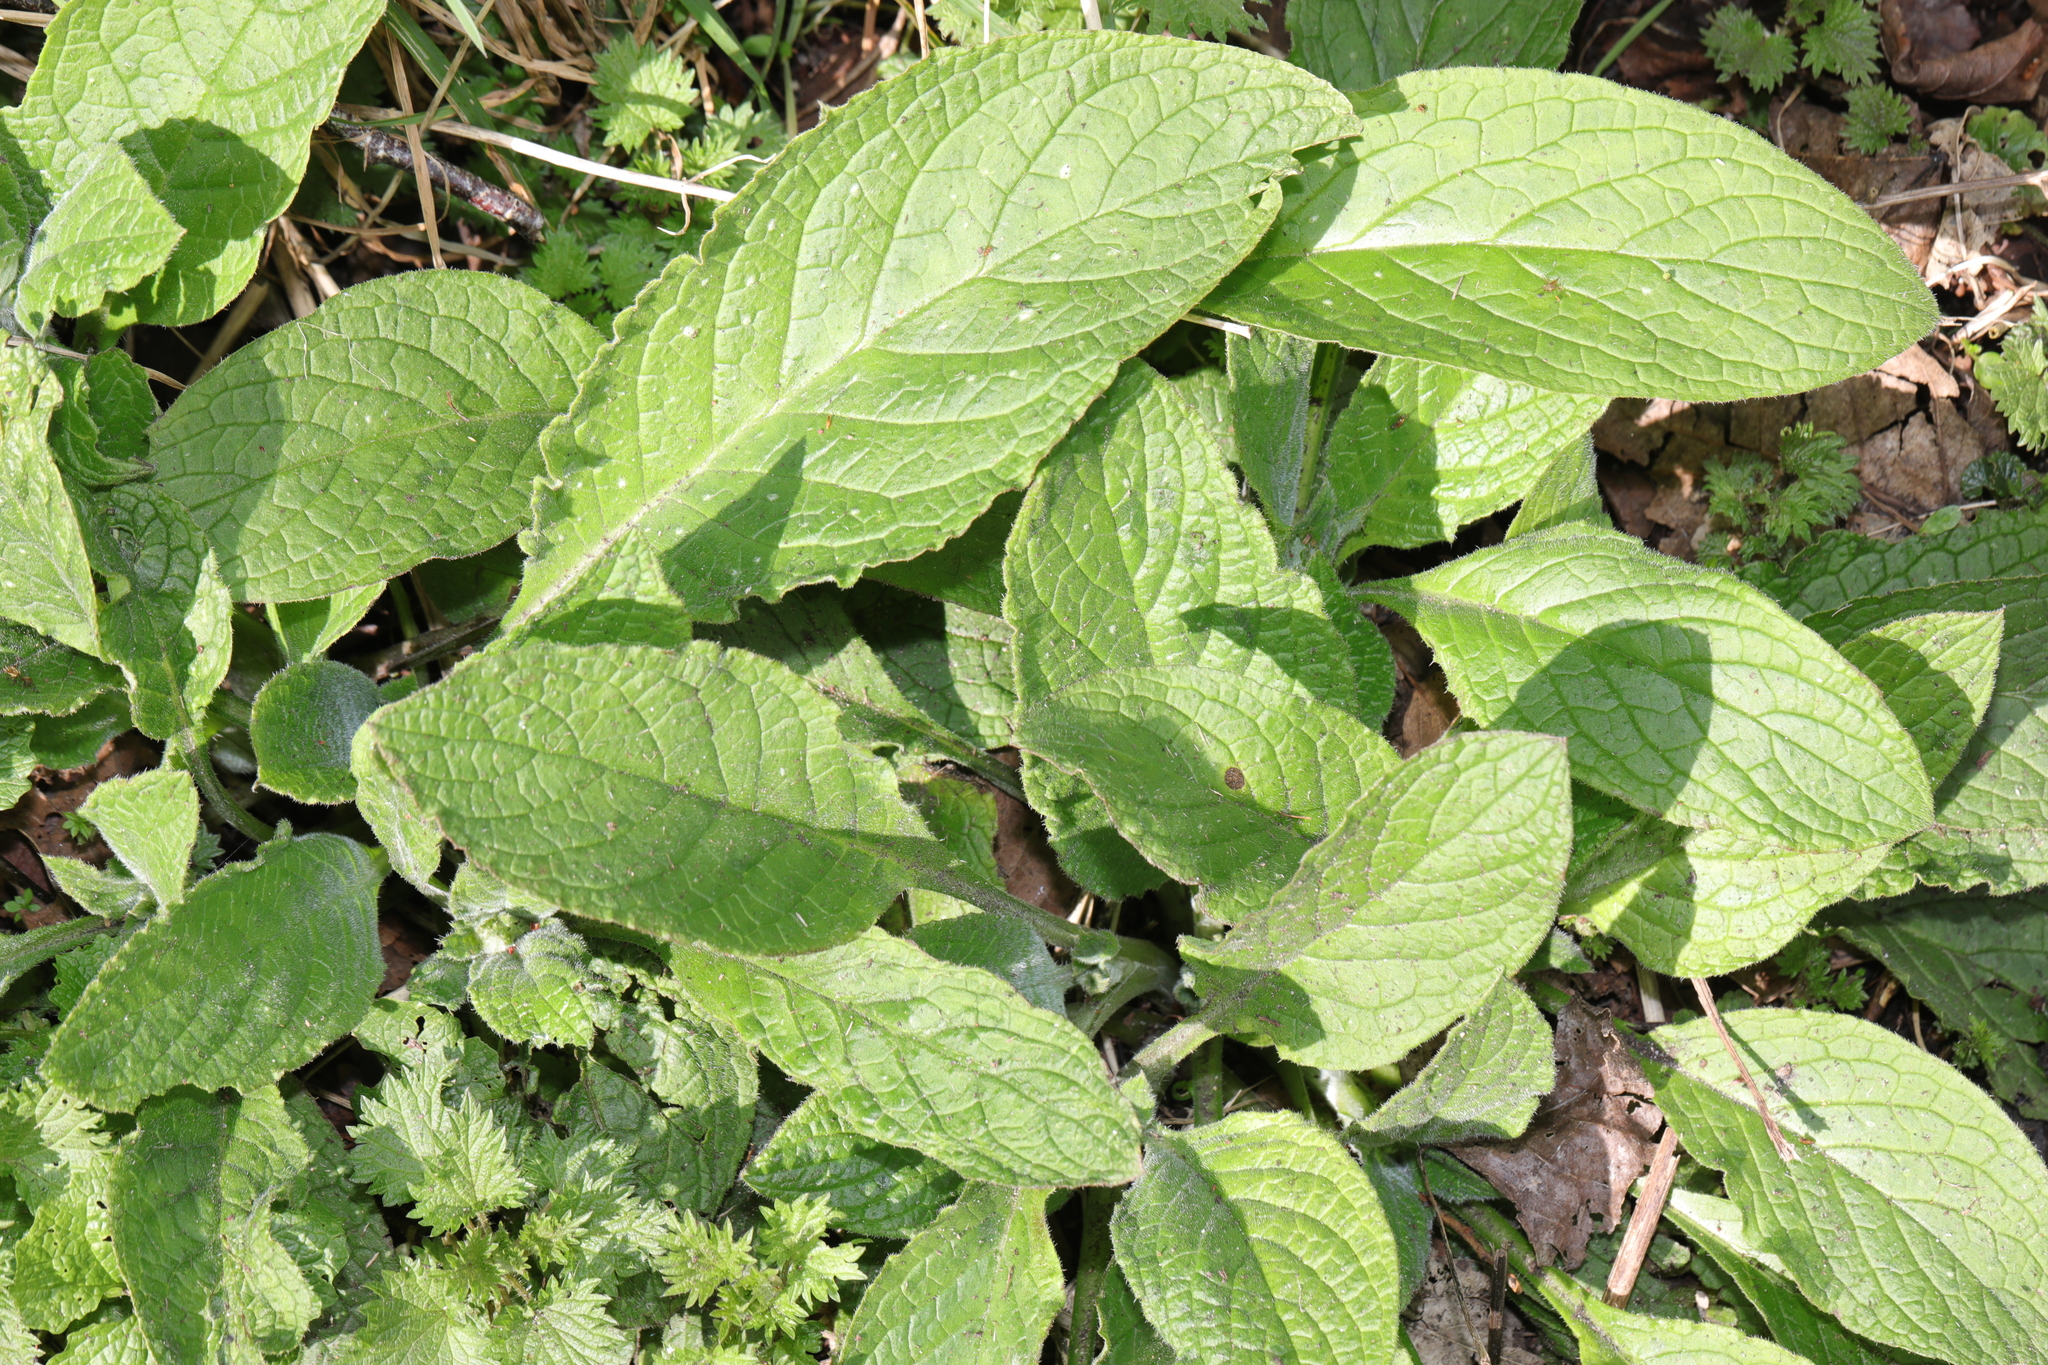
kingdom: Plantae
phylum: Tracheophyta
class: Magnoliopsida
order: Boraginales
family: Boraginaceae
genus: Pentaglottis
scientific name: Pentaglottis sempervirens
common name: Green alkanet
